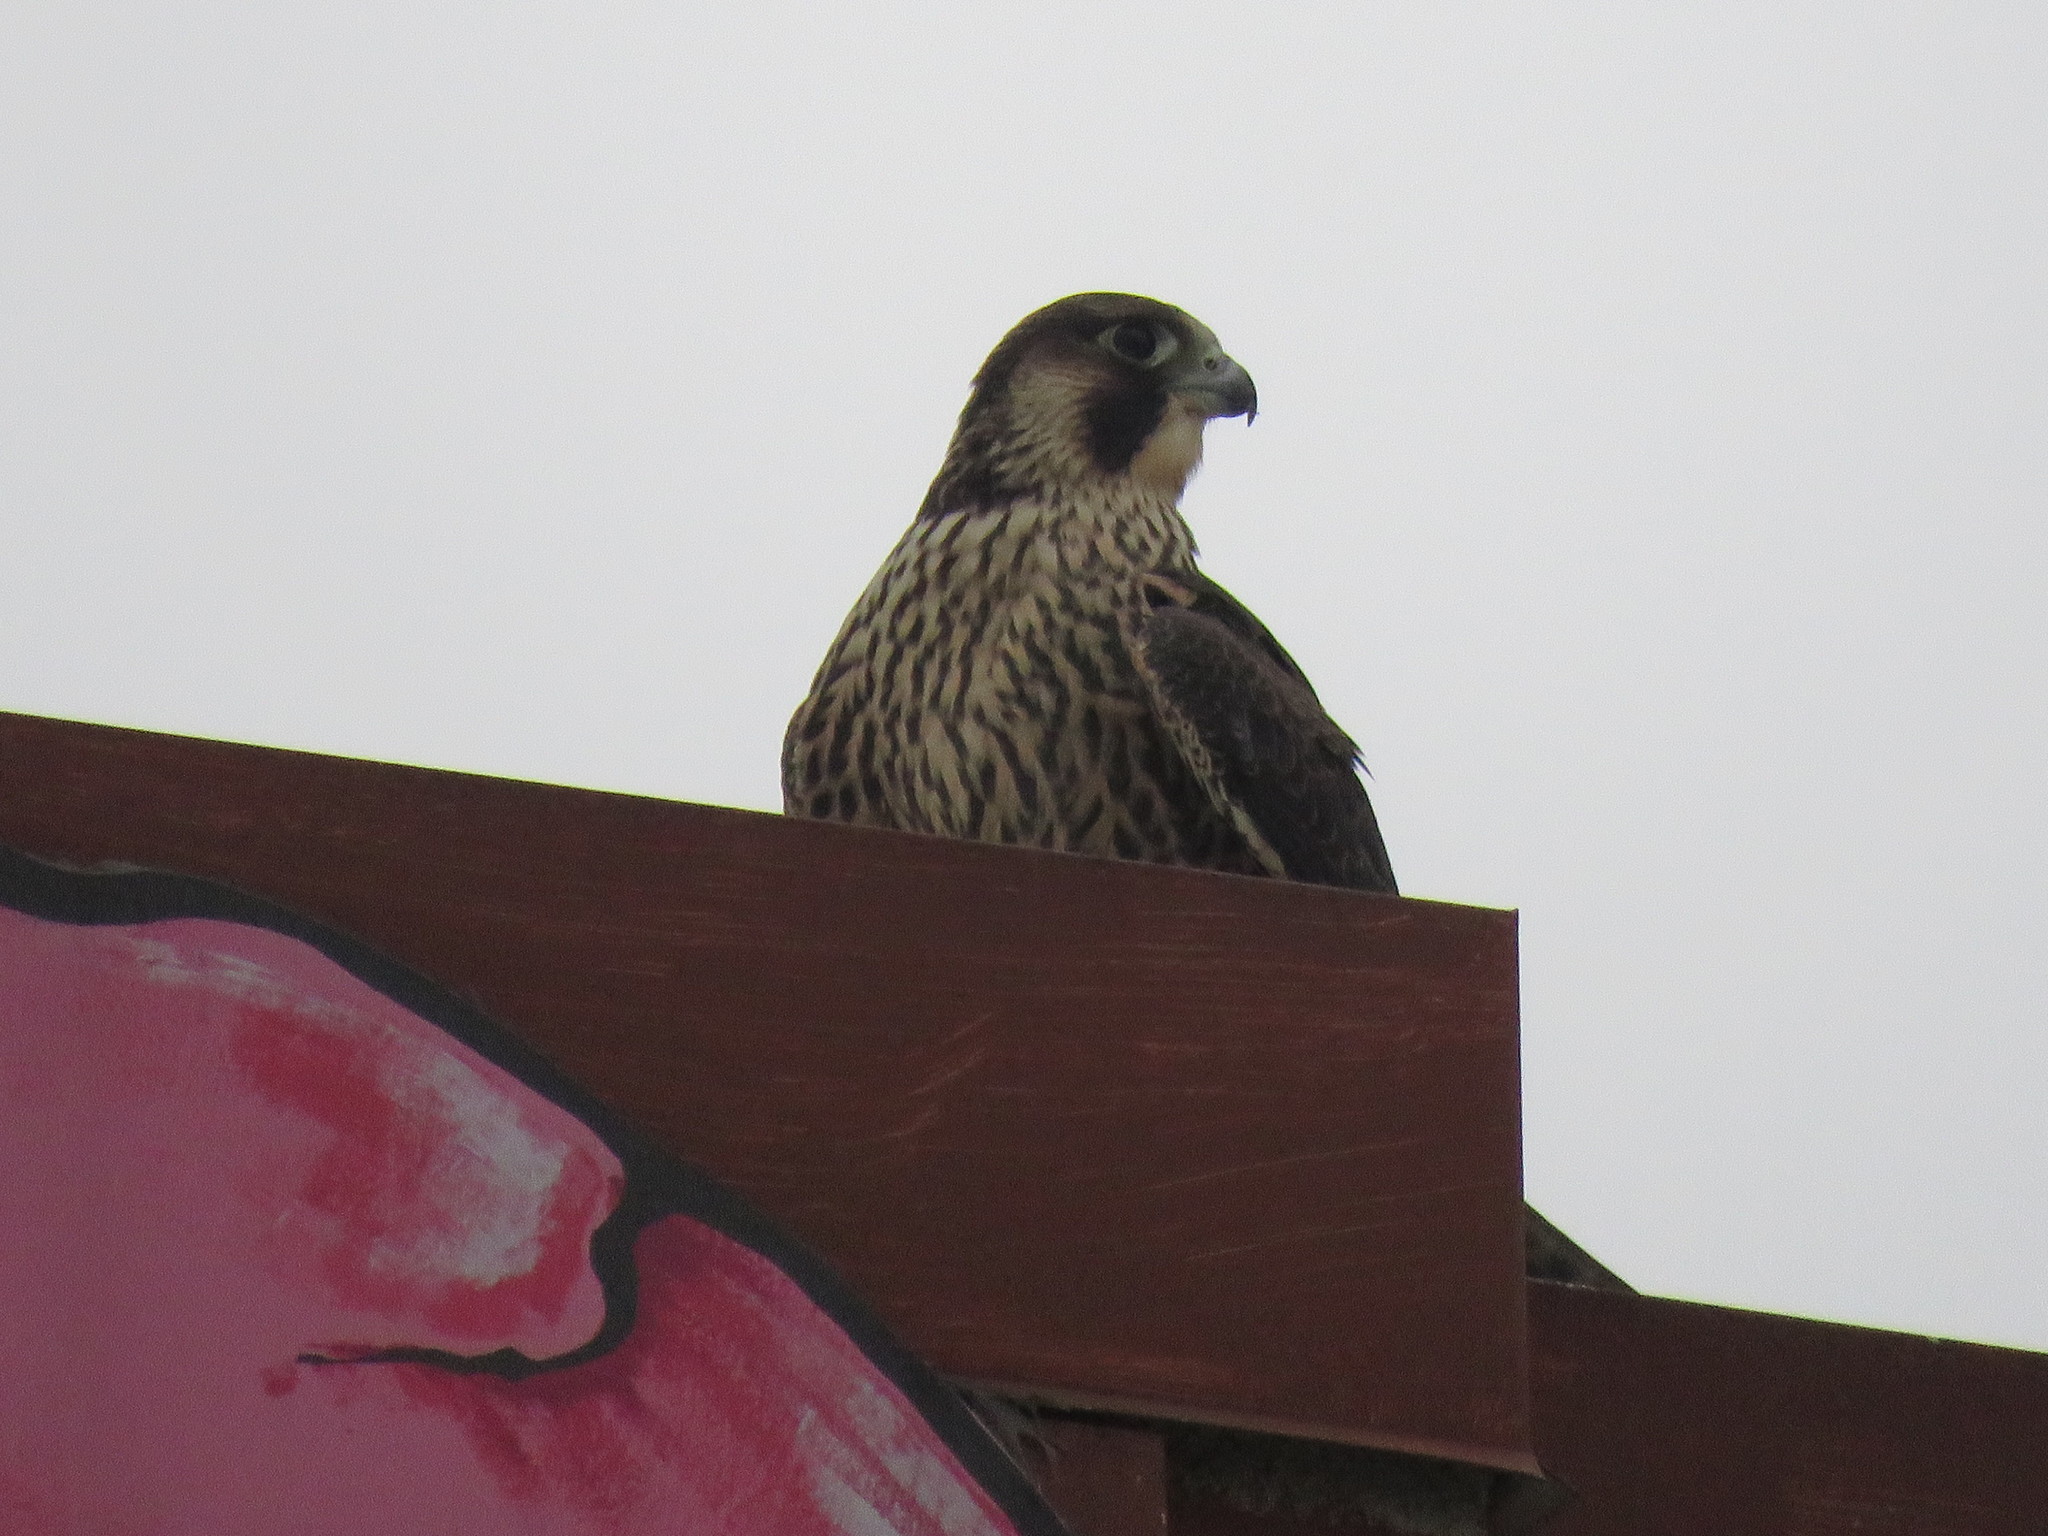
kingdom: Animalia
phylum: Chordata
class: Aves
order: Falconiformes
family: Falconidae
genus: Falco
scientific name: Falco peregrinus
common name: Peregrine falcon
